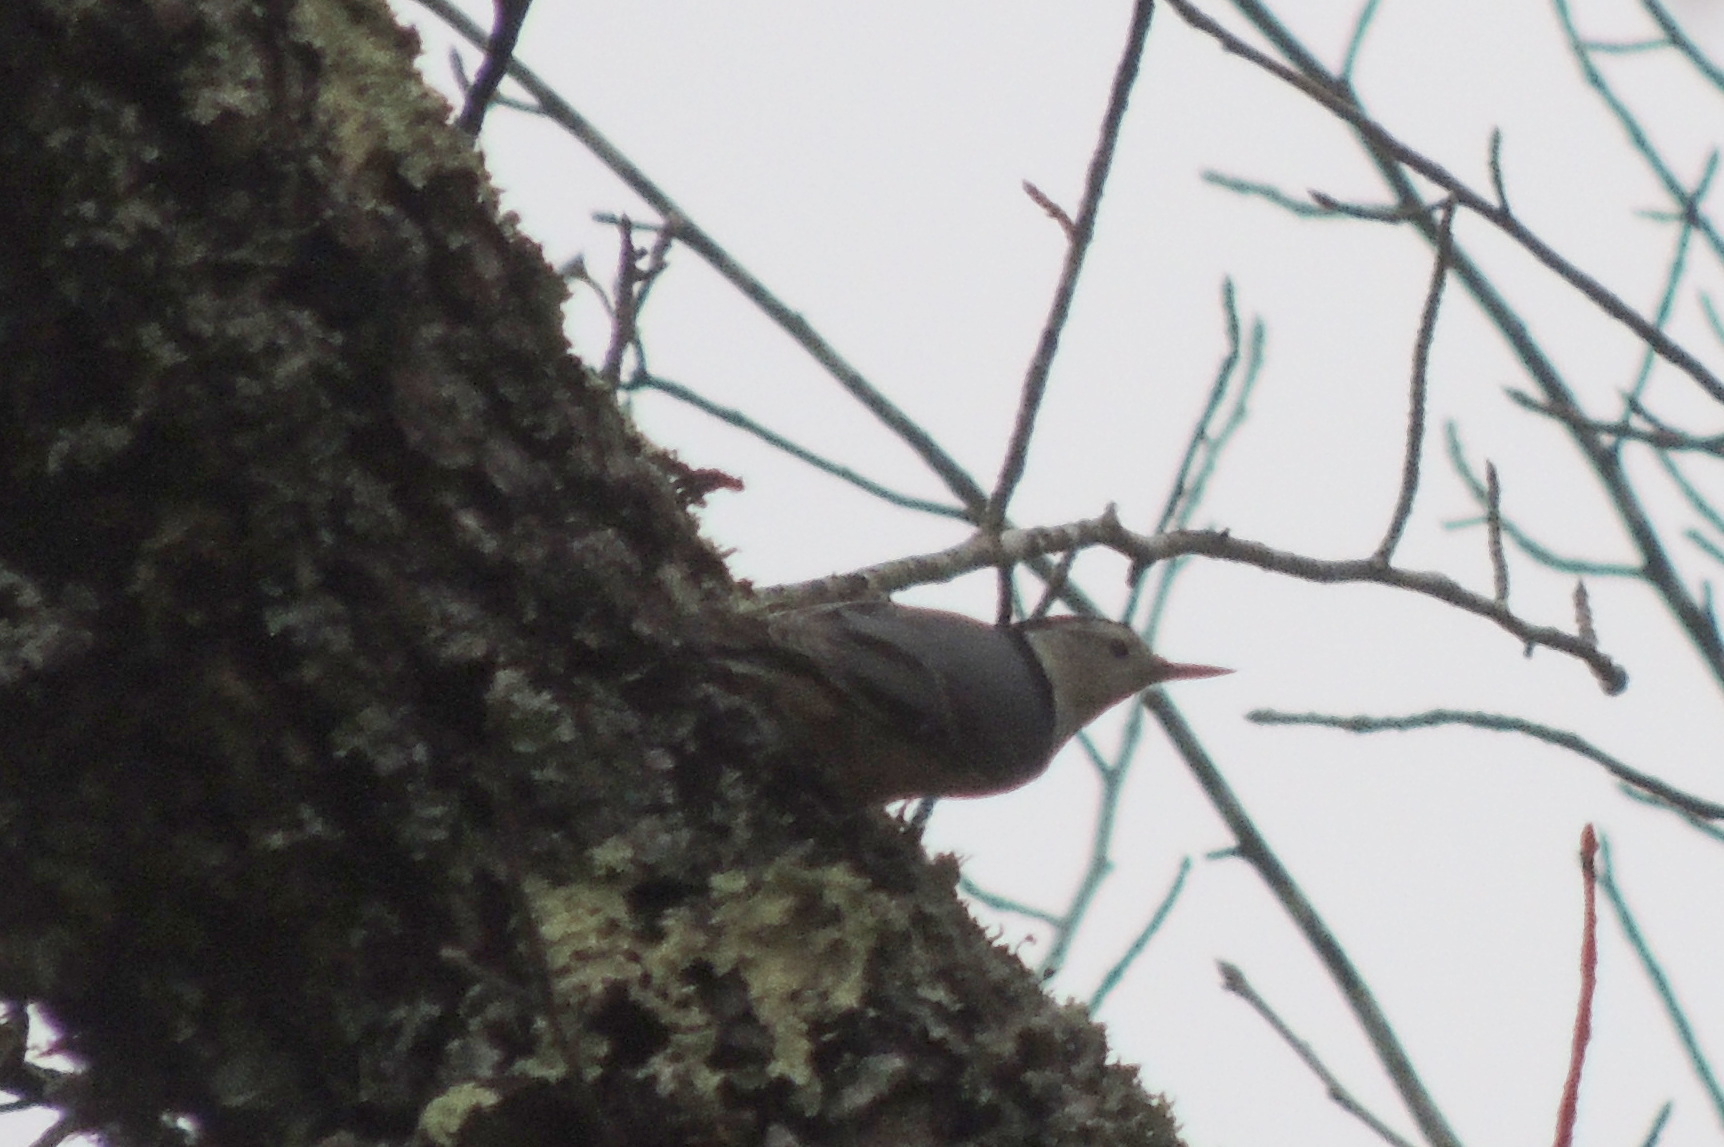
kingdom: Animalia
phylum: Chordata
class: Aves
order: Passeriformes
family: Sittidae
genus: Sitta
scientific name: Sitta carolinensis
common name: White-breasted nuthatch
